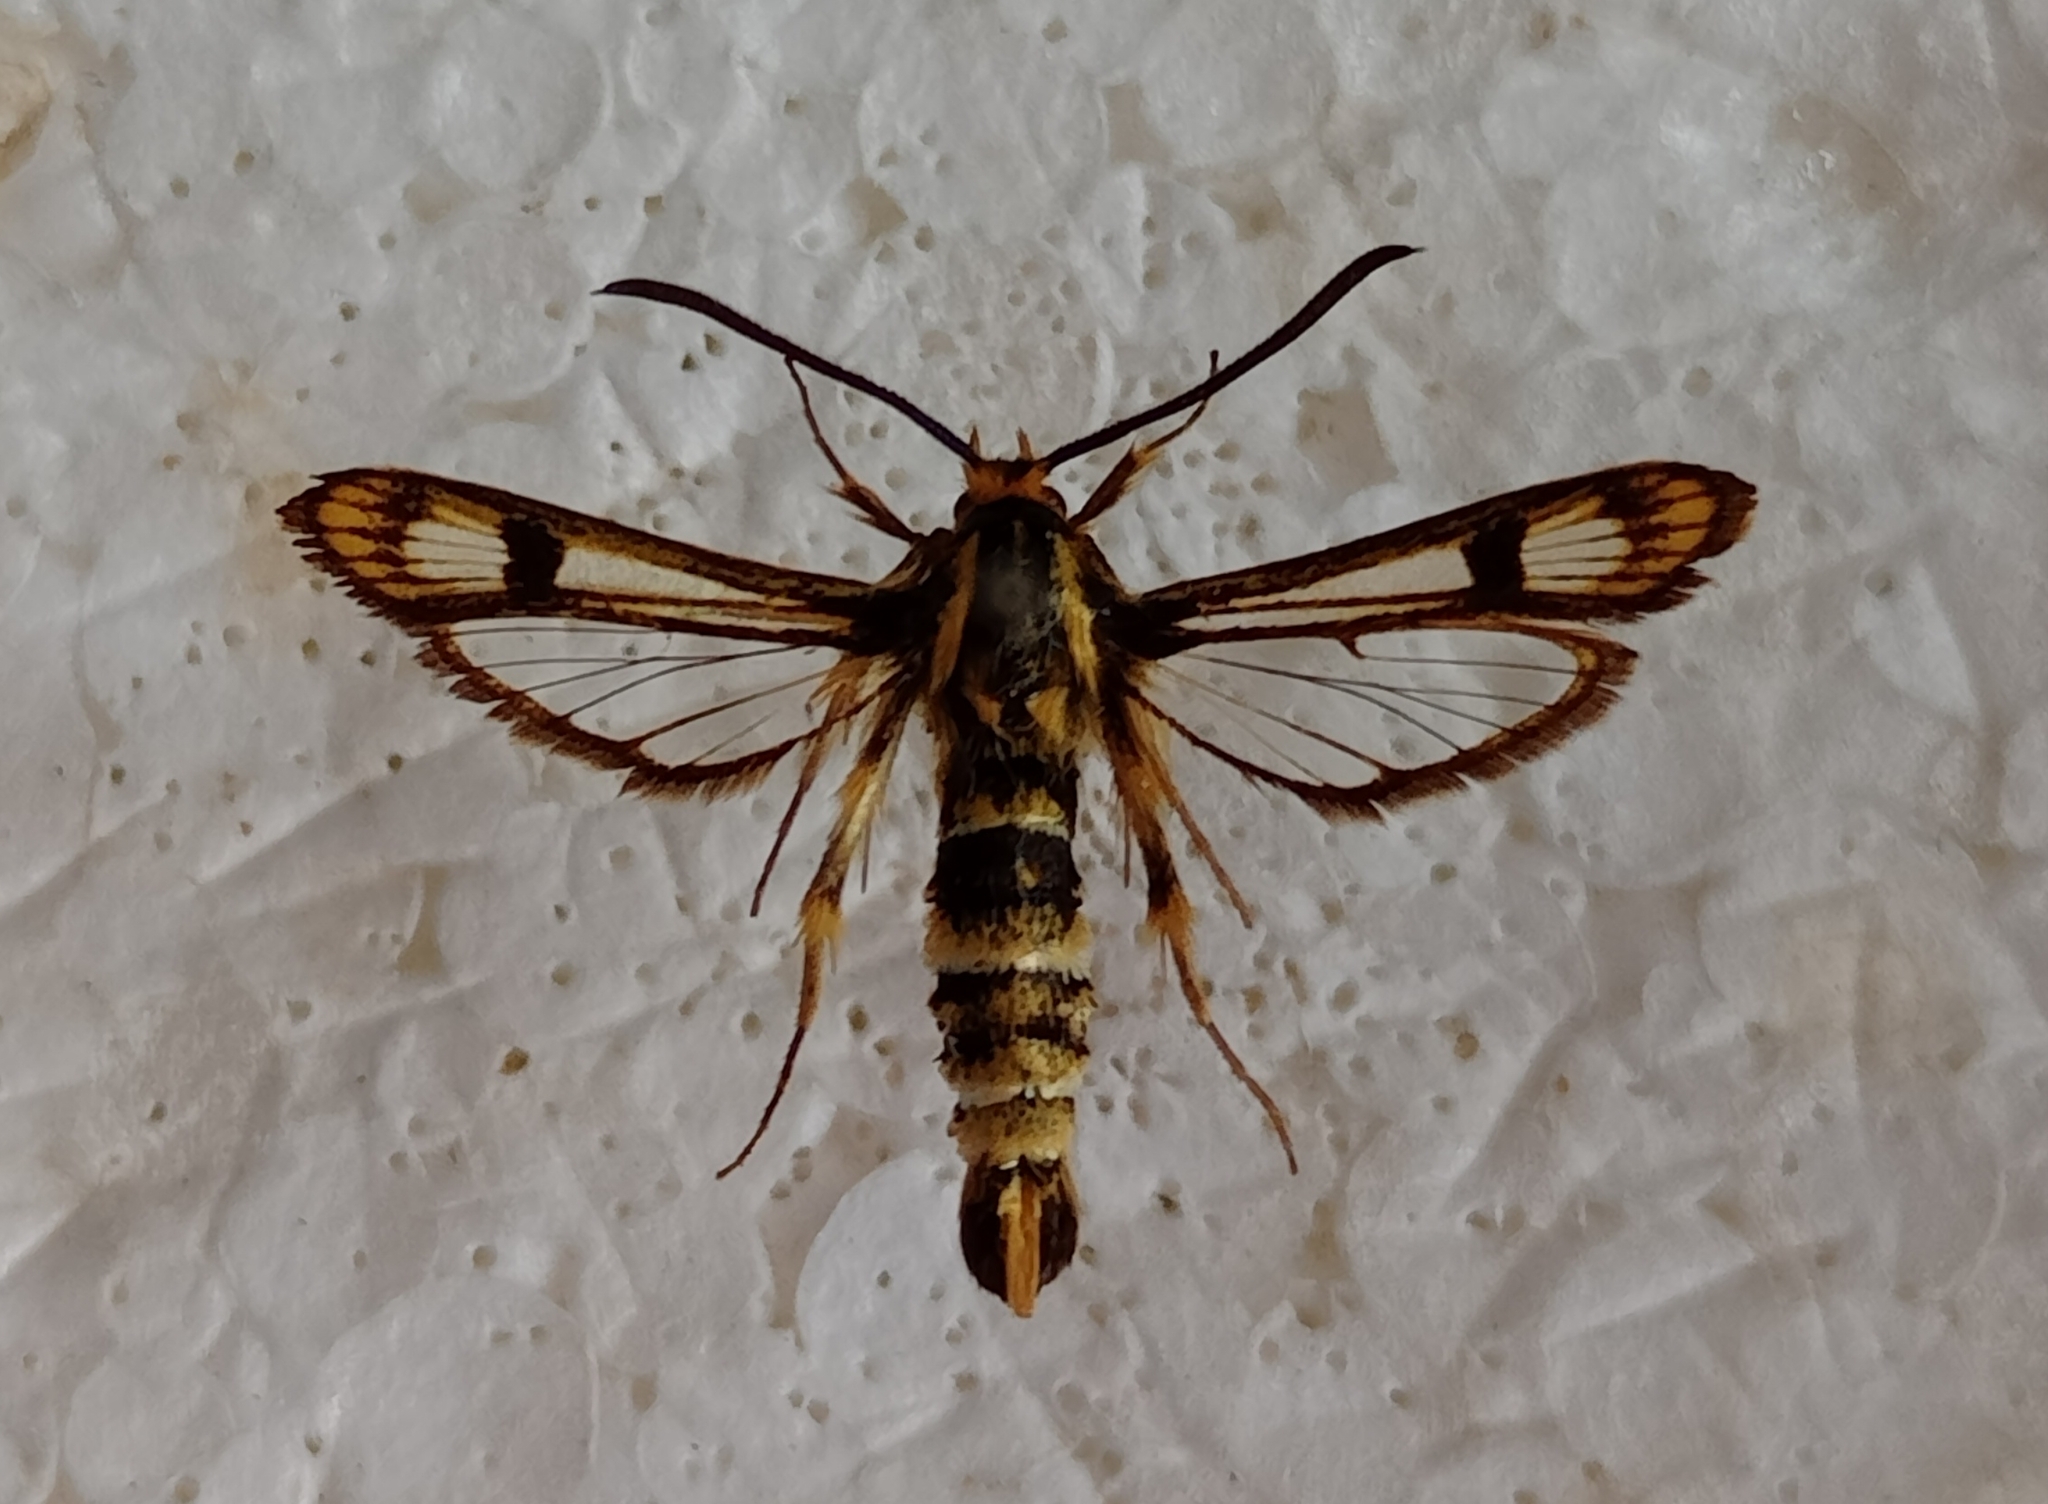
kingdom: Animalia
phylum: Arthropoda
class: Insecta
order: Lepidoptera
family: Sesiidae
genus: Chamaesphecia
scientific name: Chamaesphecia empiformis
